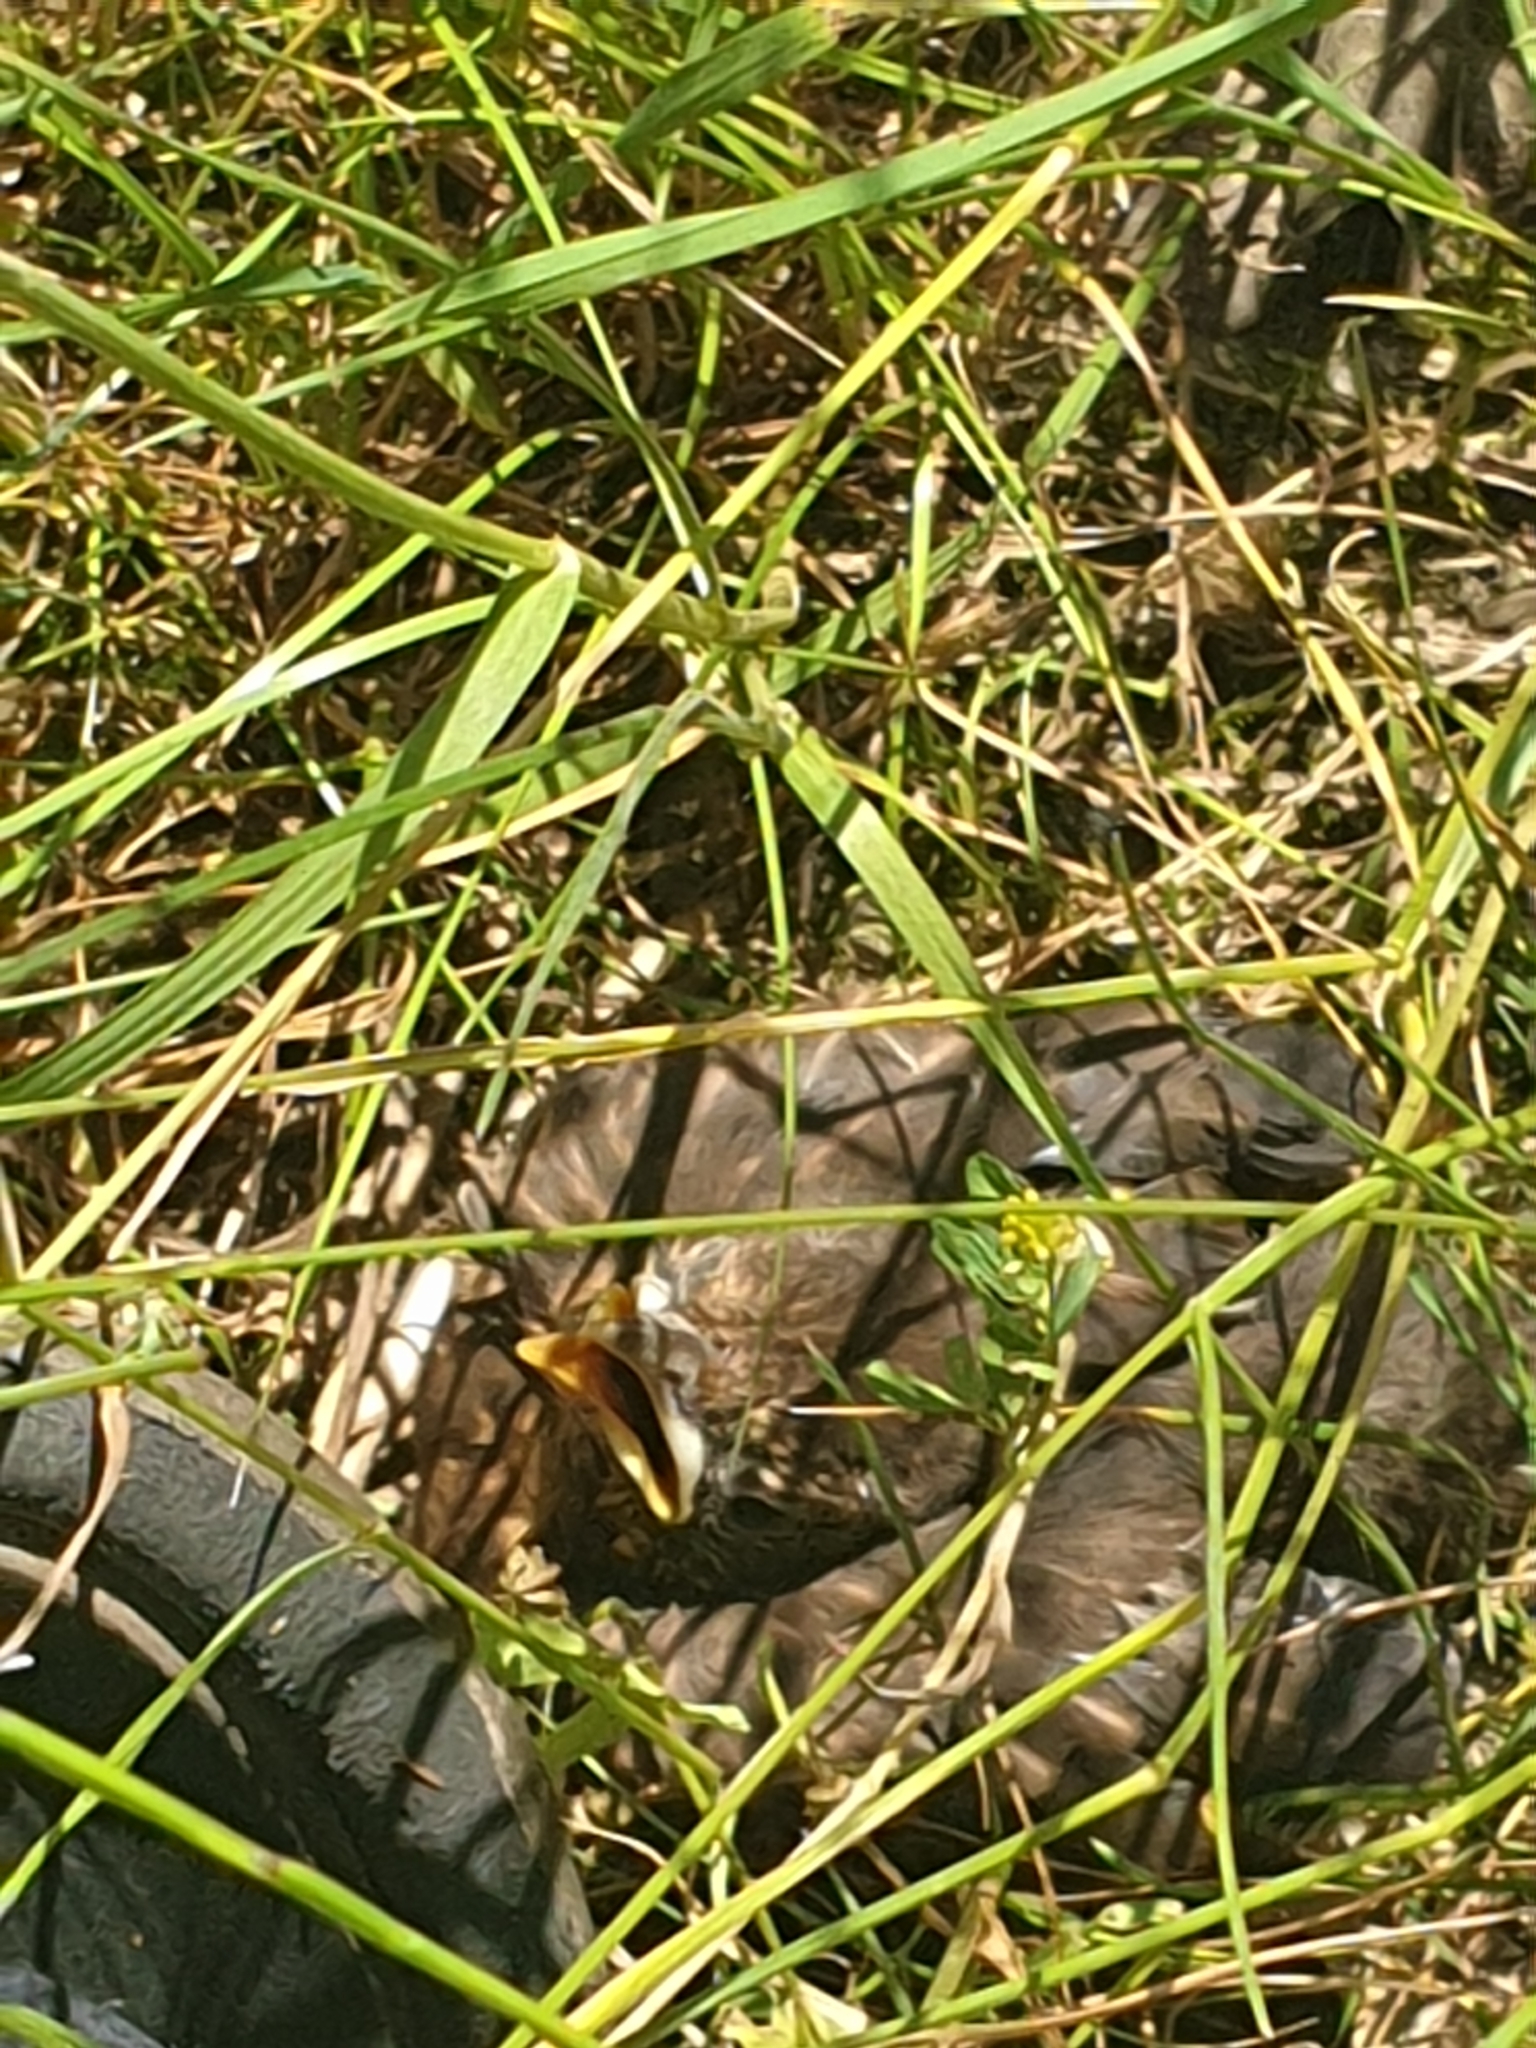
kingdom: Animalia
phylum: Chordata
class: Aves
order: Passeriformes
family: Turdidae
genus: Turdus
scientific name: Turdus merula
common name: Common blackbird
